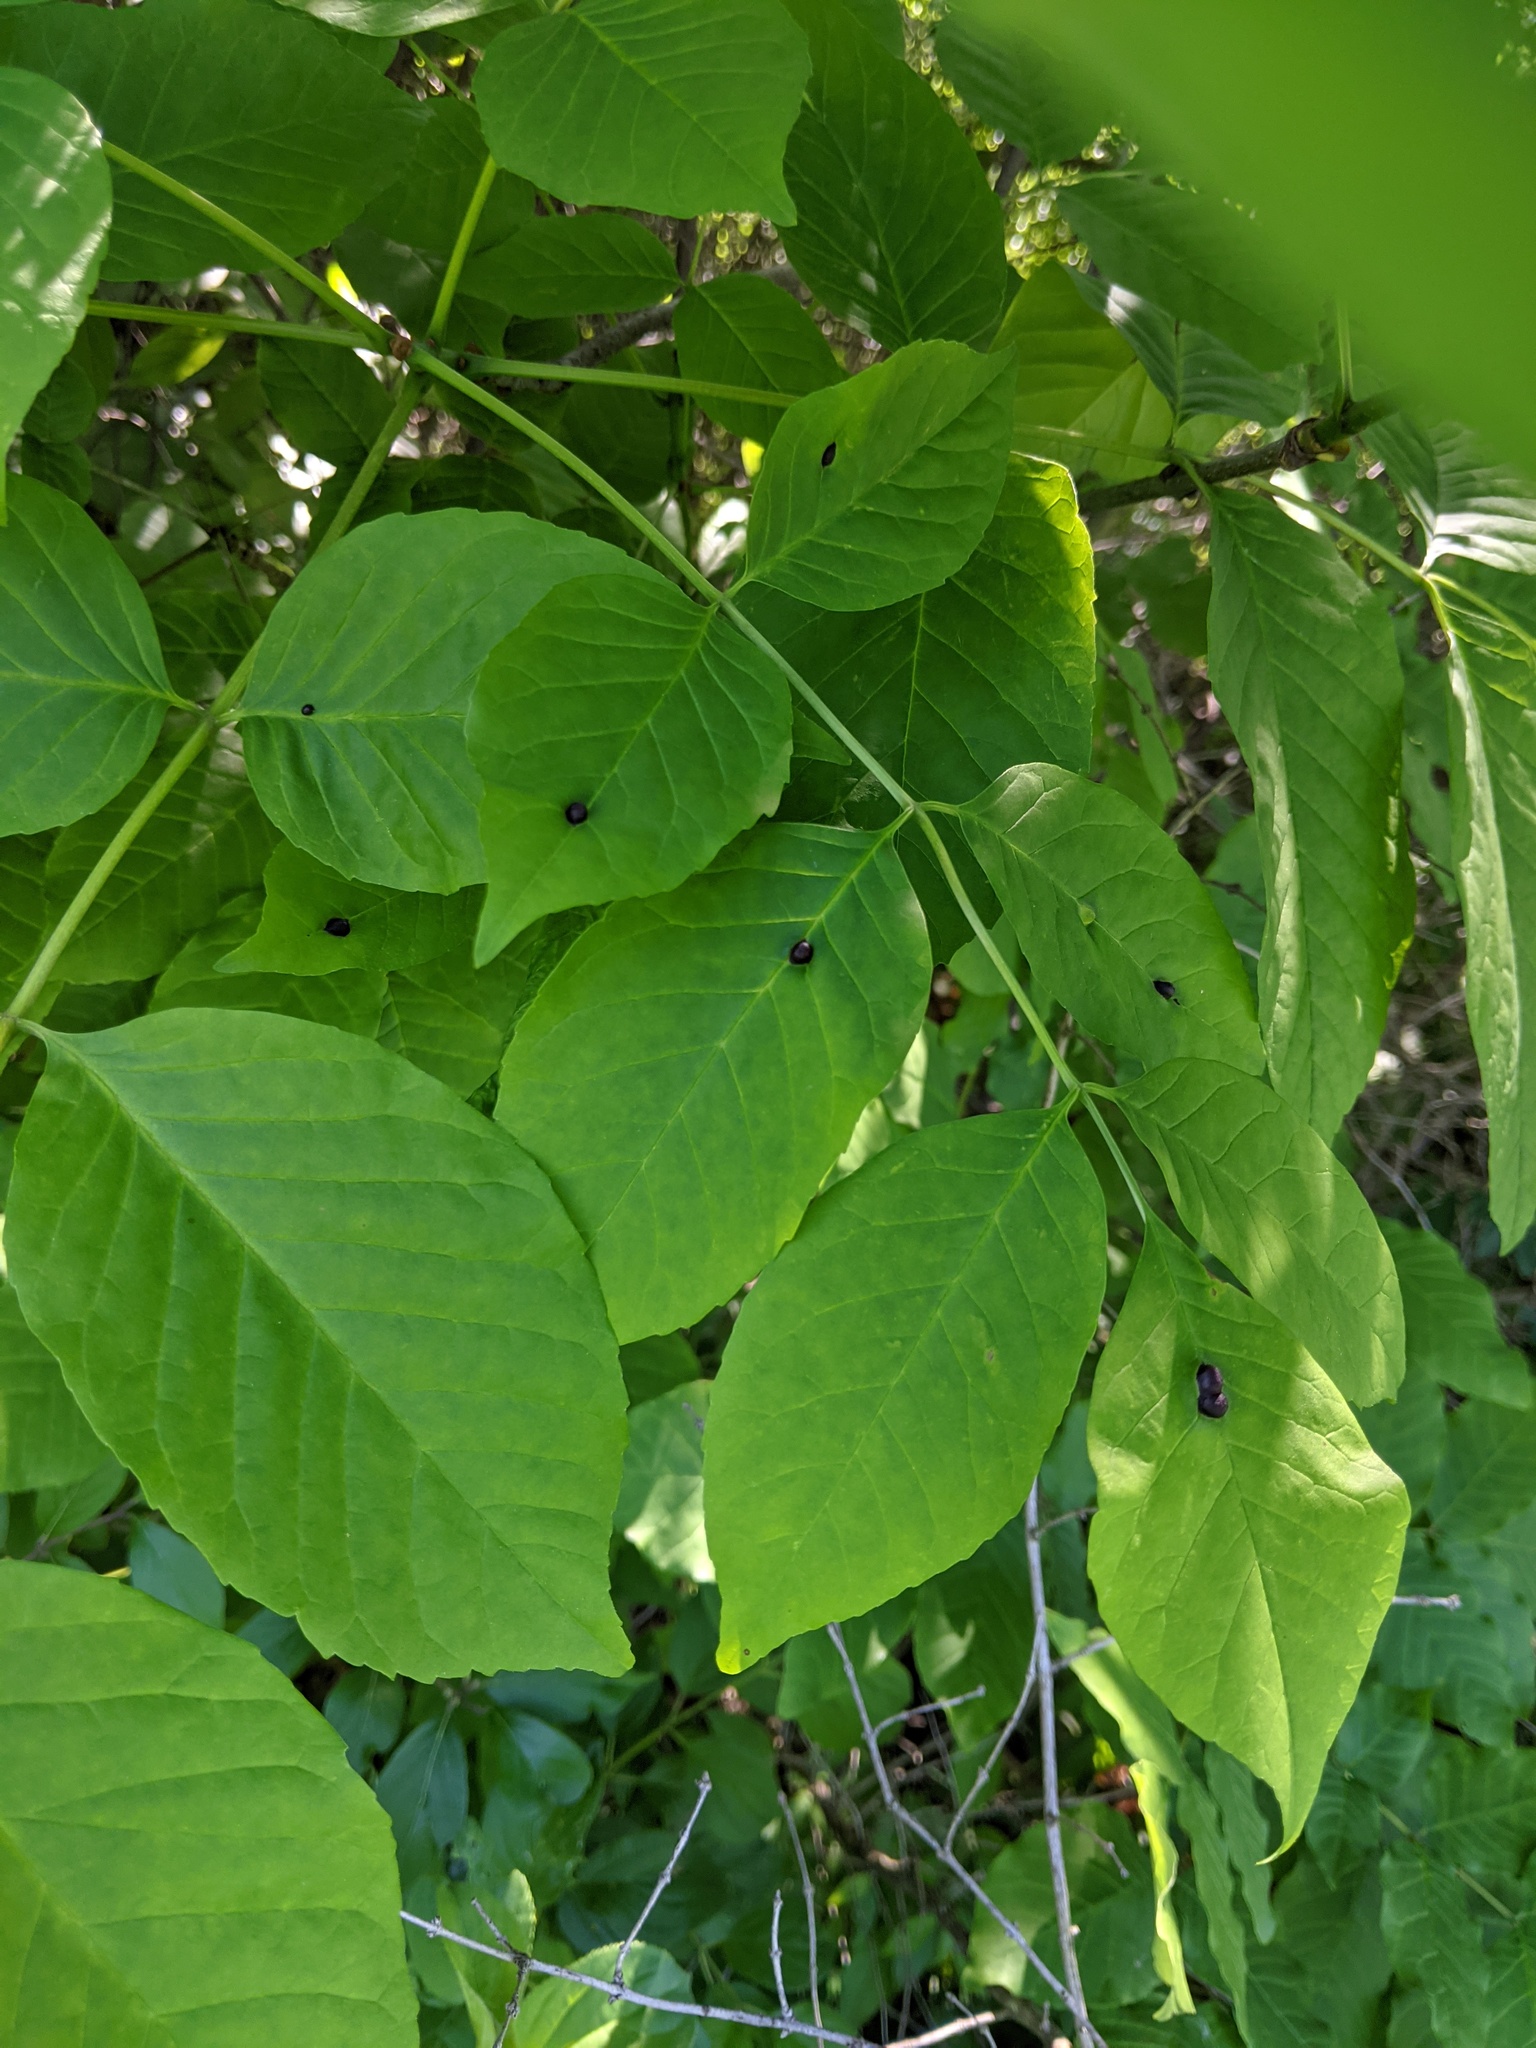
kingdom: Animalia
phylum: Arthropoda
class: Insecta
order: Diptera
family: Cecidomyiidae
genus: Dasineura
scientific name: Dasineura pellex
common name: Ash bullet gall midge
